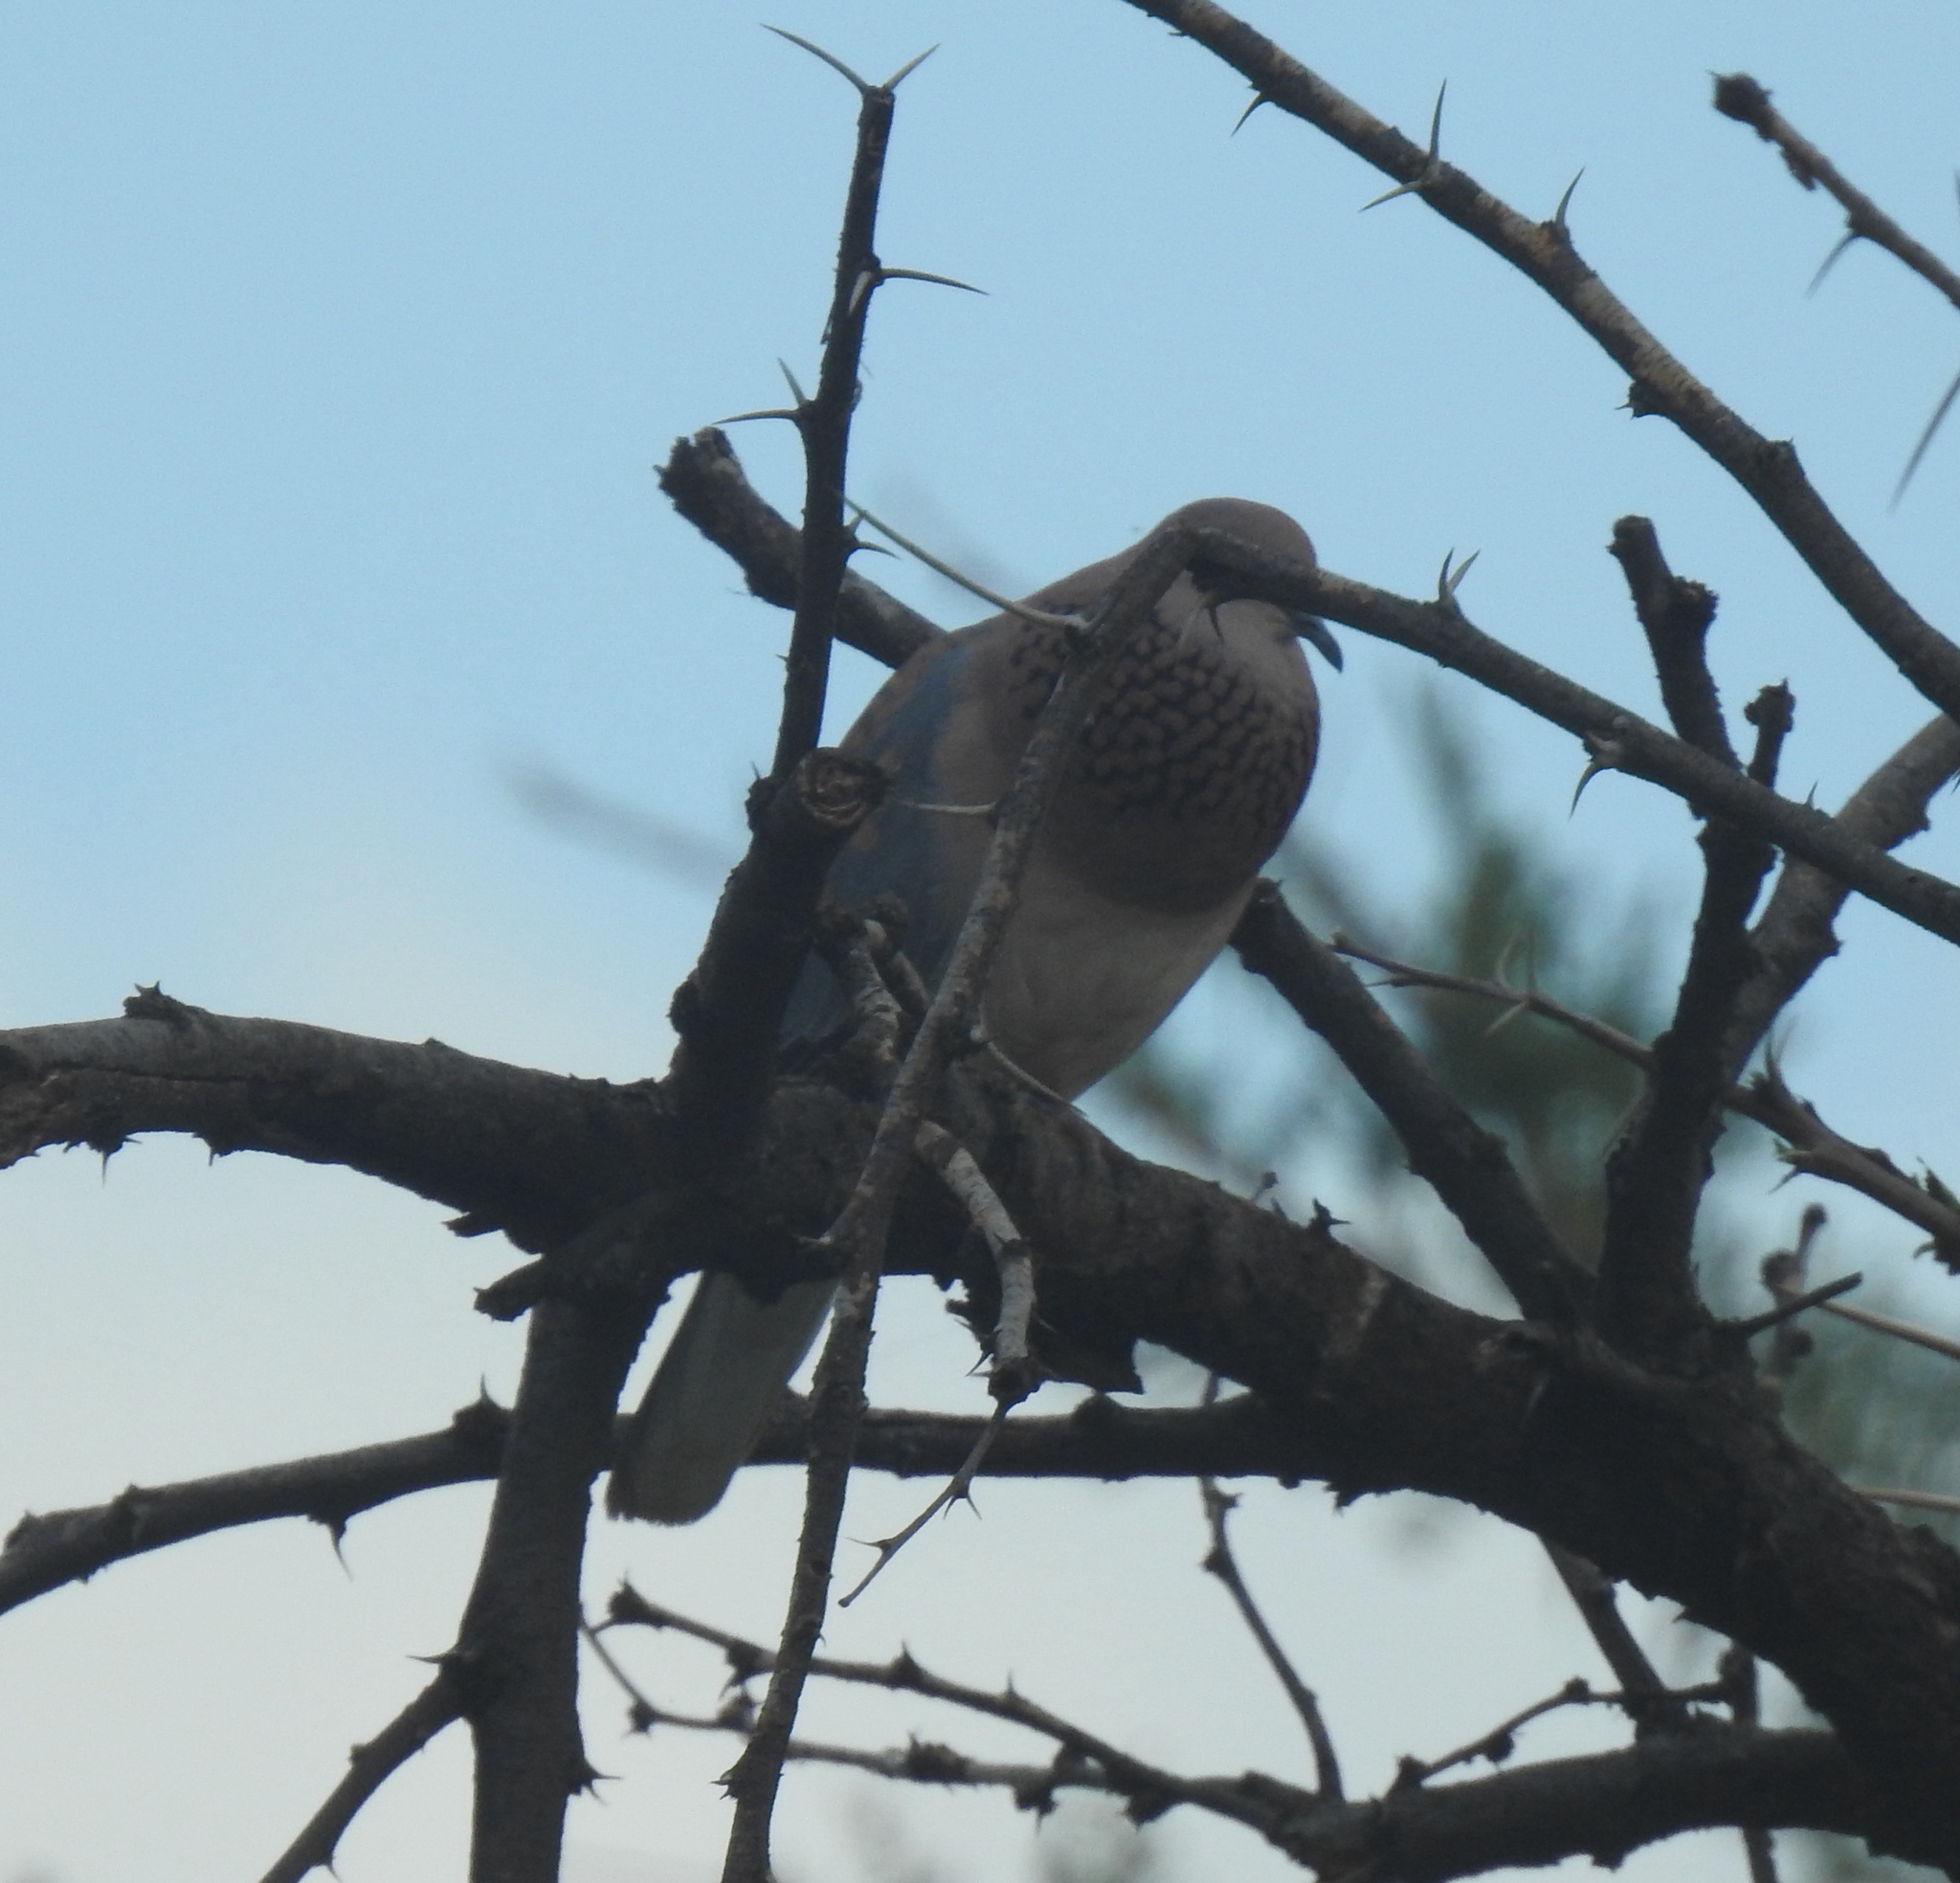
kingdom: Animalia
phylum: Chordata
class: Aves
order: Columbiformes
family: Columbidae
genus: Spilopelia
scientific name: Spilopelia senegalensis
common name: Laughing dove
